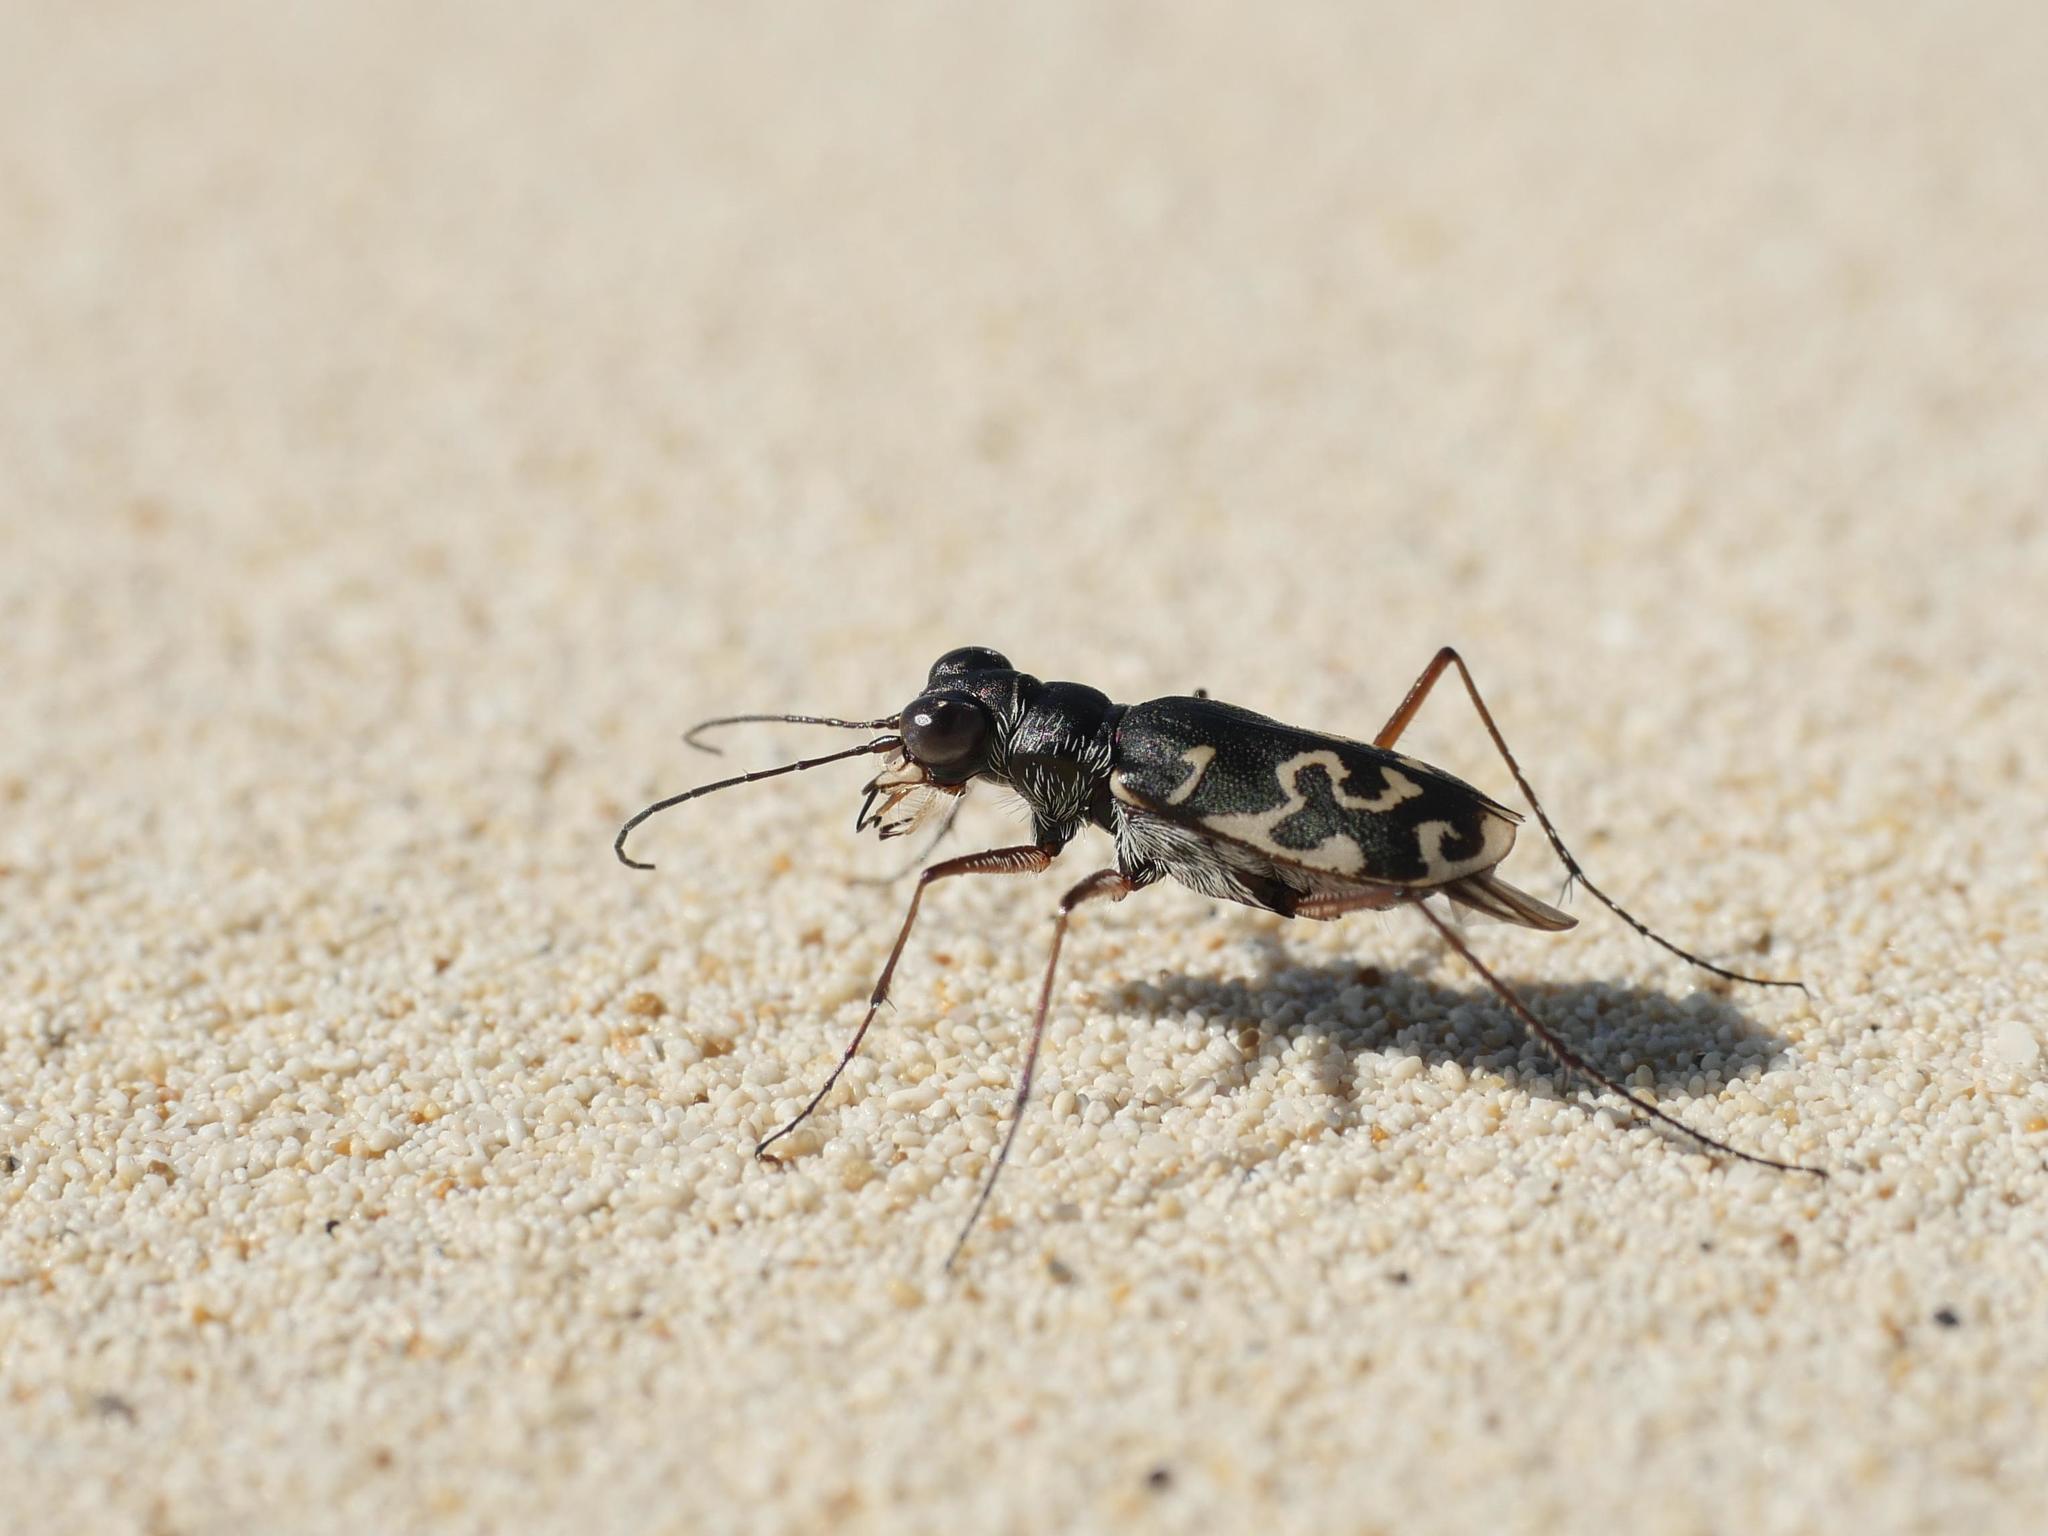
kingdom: Animalia
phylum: Arthropoda
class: Insecta
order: Coleoptera
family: Carabidae
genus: Cicindela
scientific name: Cicindela trifasciata
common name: Mudflat tiger beetle
